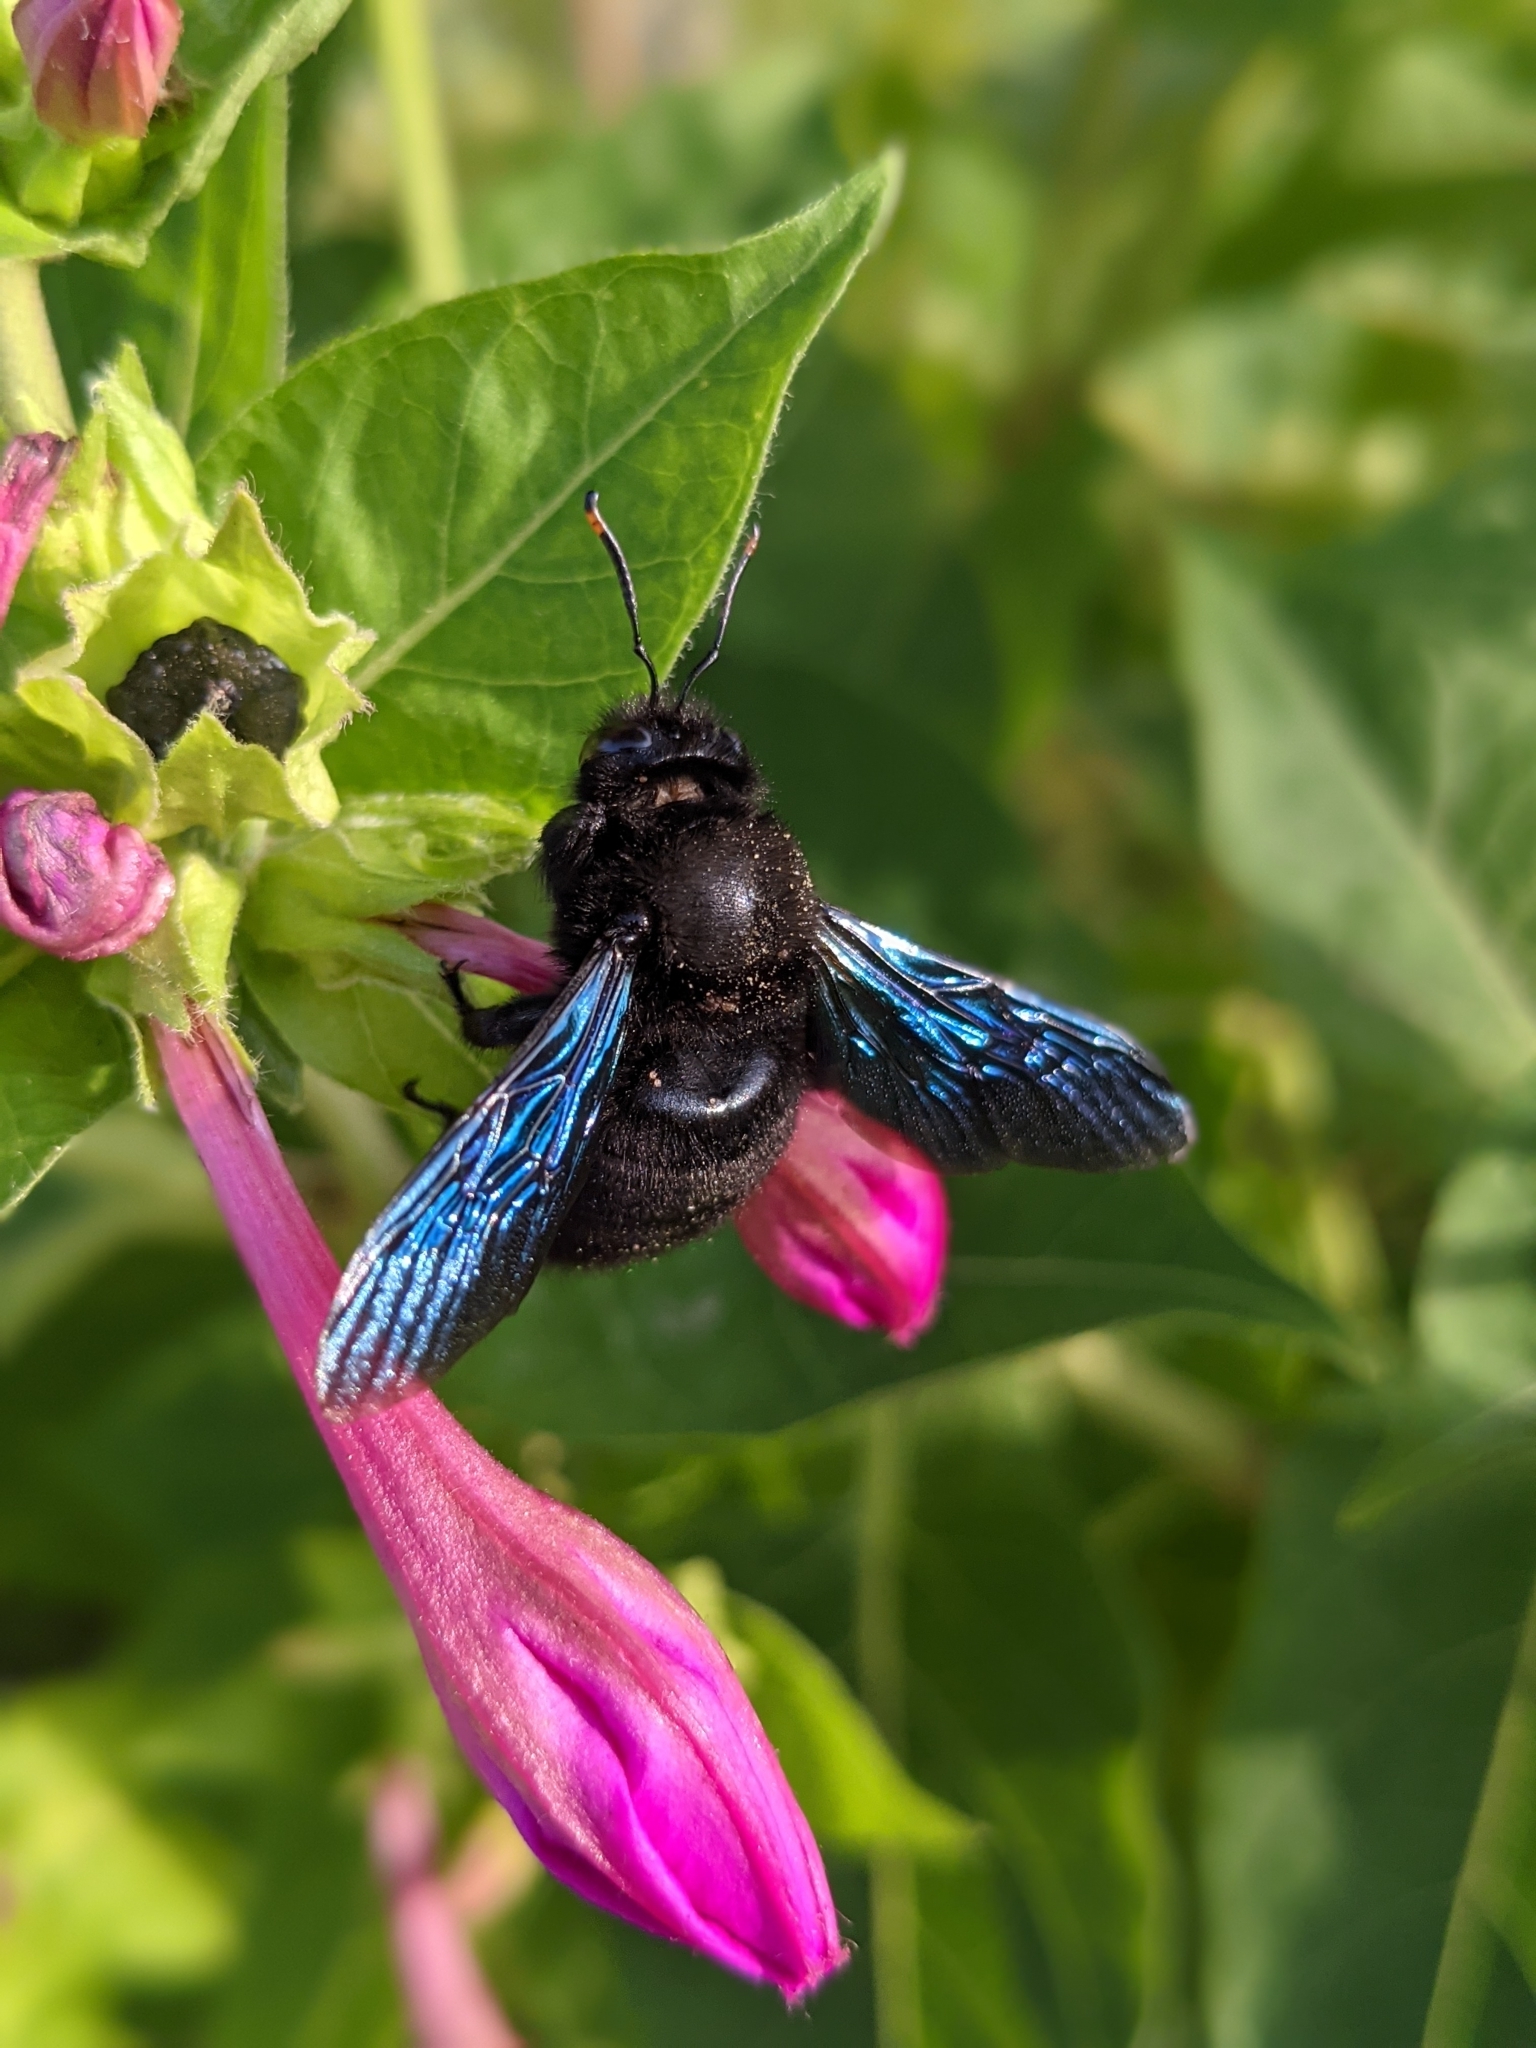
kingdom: Animalia
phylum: Arthropoda
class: Insecta
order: Hymenoptera
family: Apidae
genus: Xylocopa
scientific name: Xylocopa violacea
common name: Violet carpenter bee
